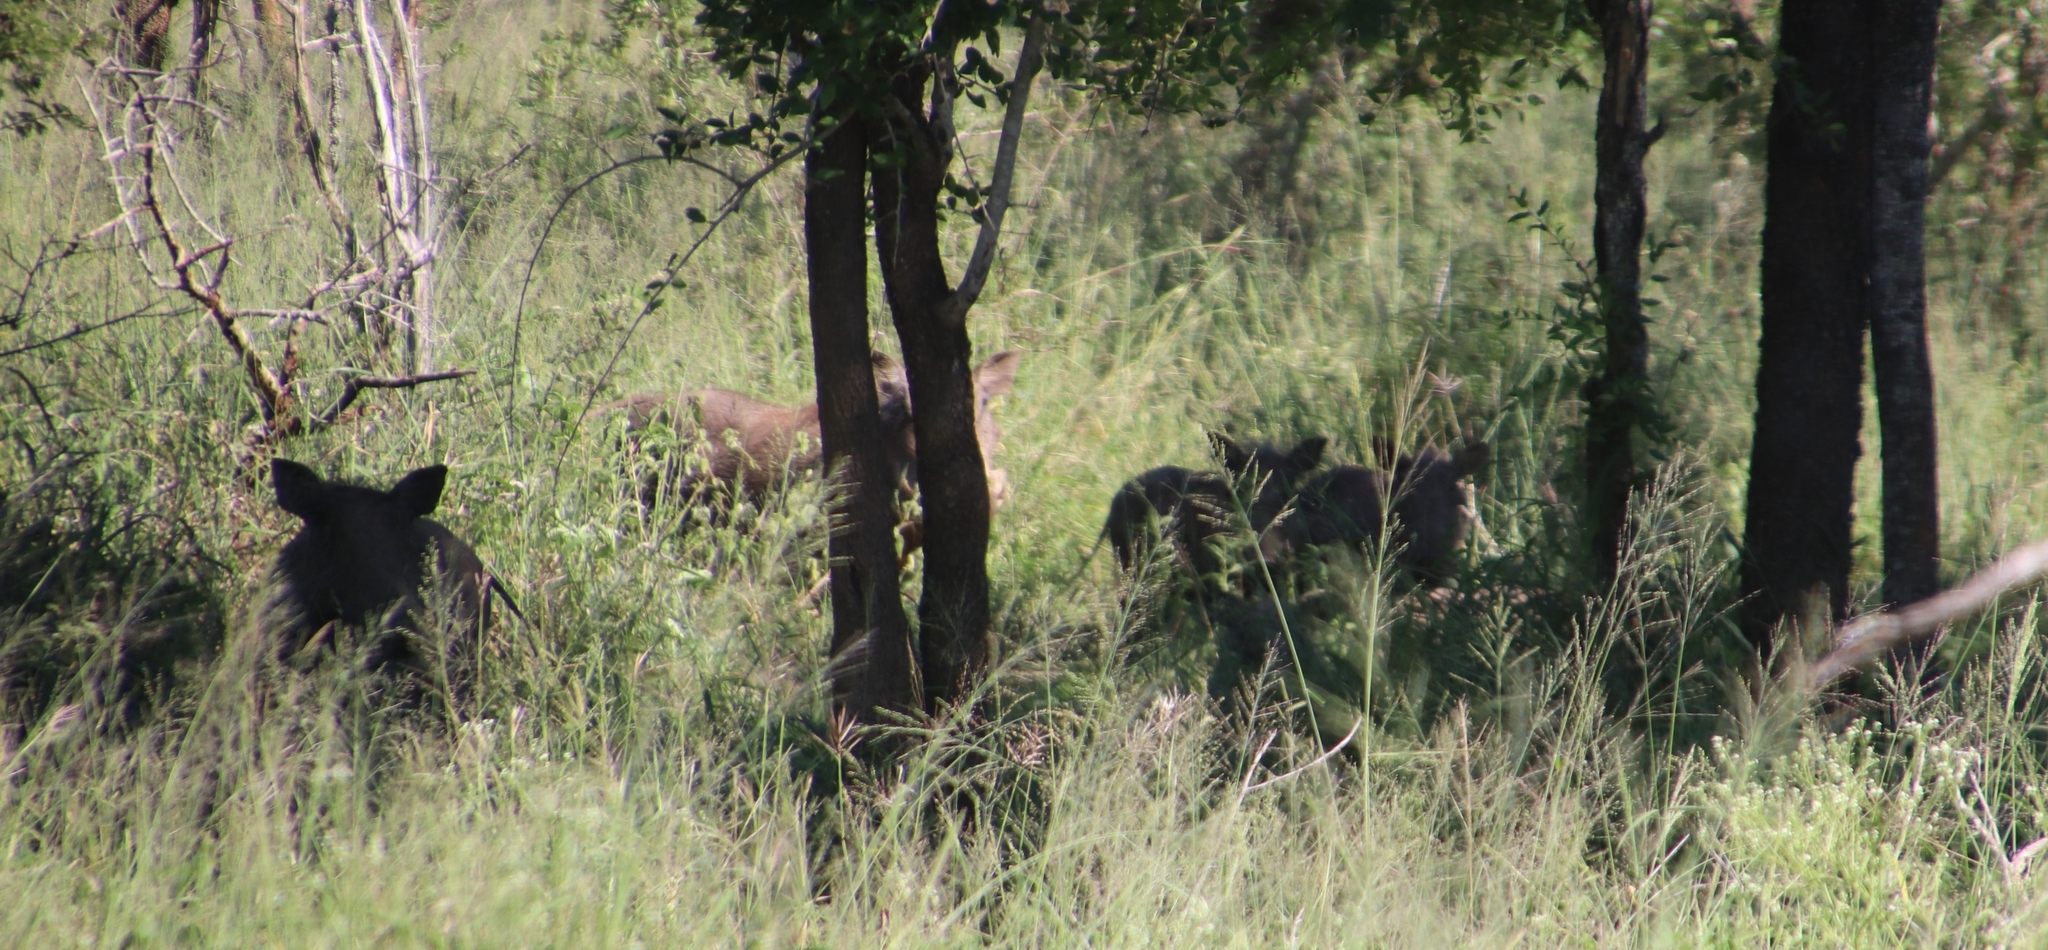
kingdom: Animalia
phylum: Chordata
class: Mammalia
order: Artiodactyla
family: Suidae
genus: Phacochoerus
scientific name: Phacochoerus africanus
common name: Common warthog
